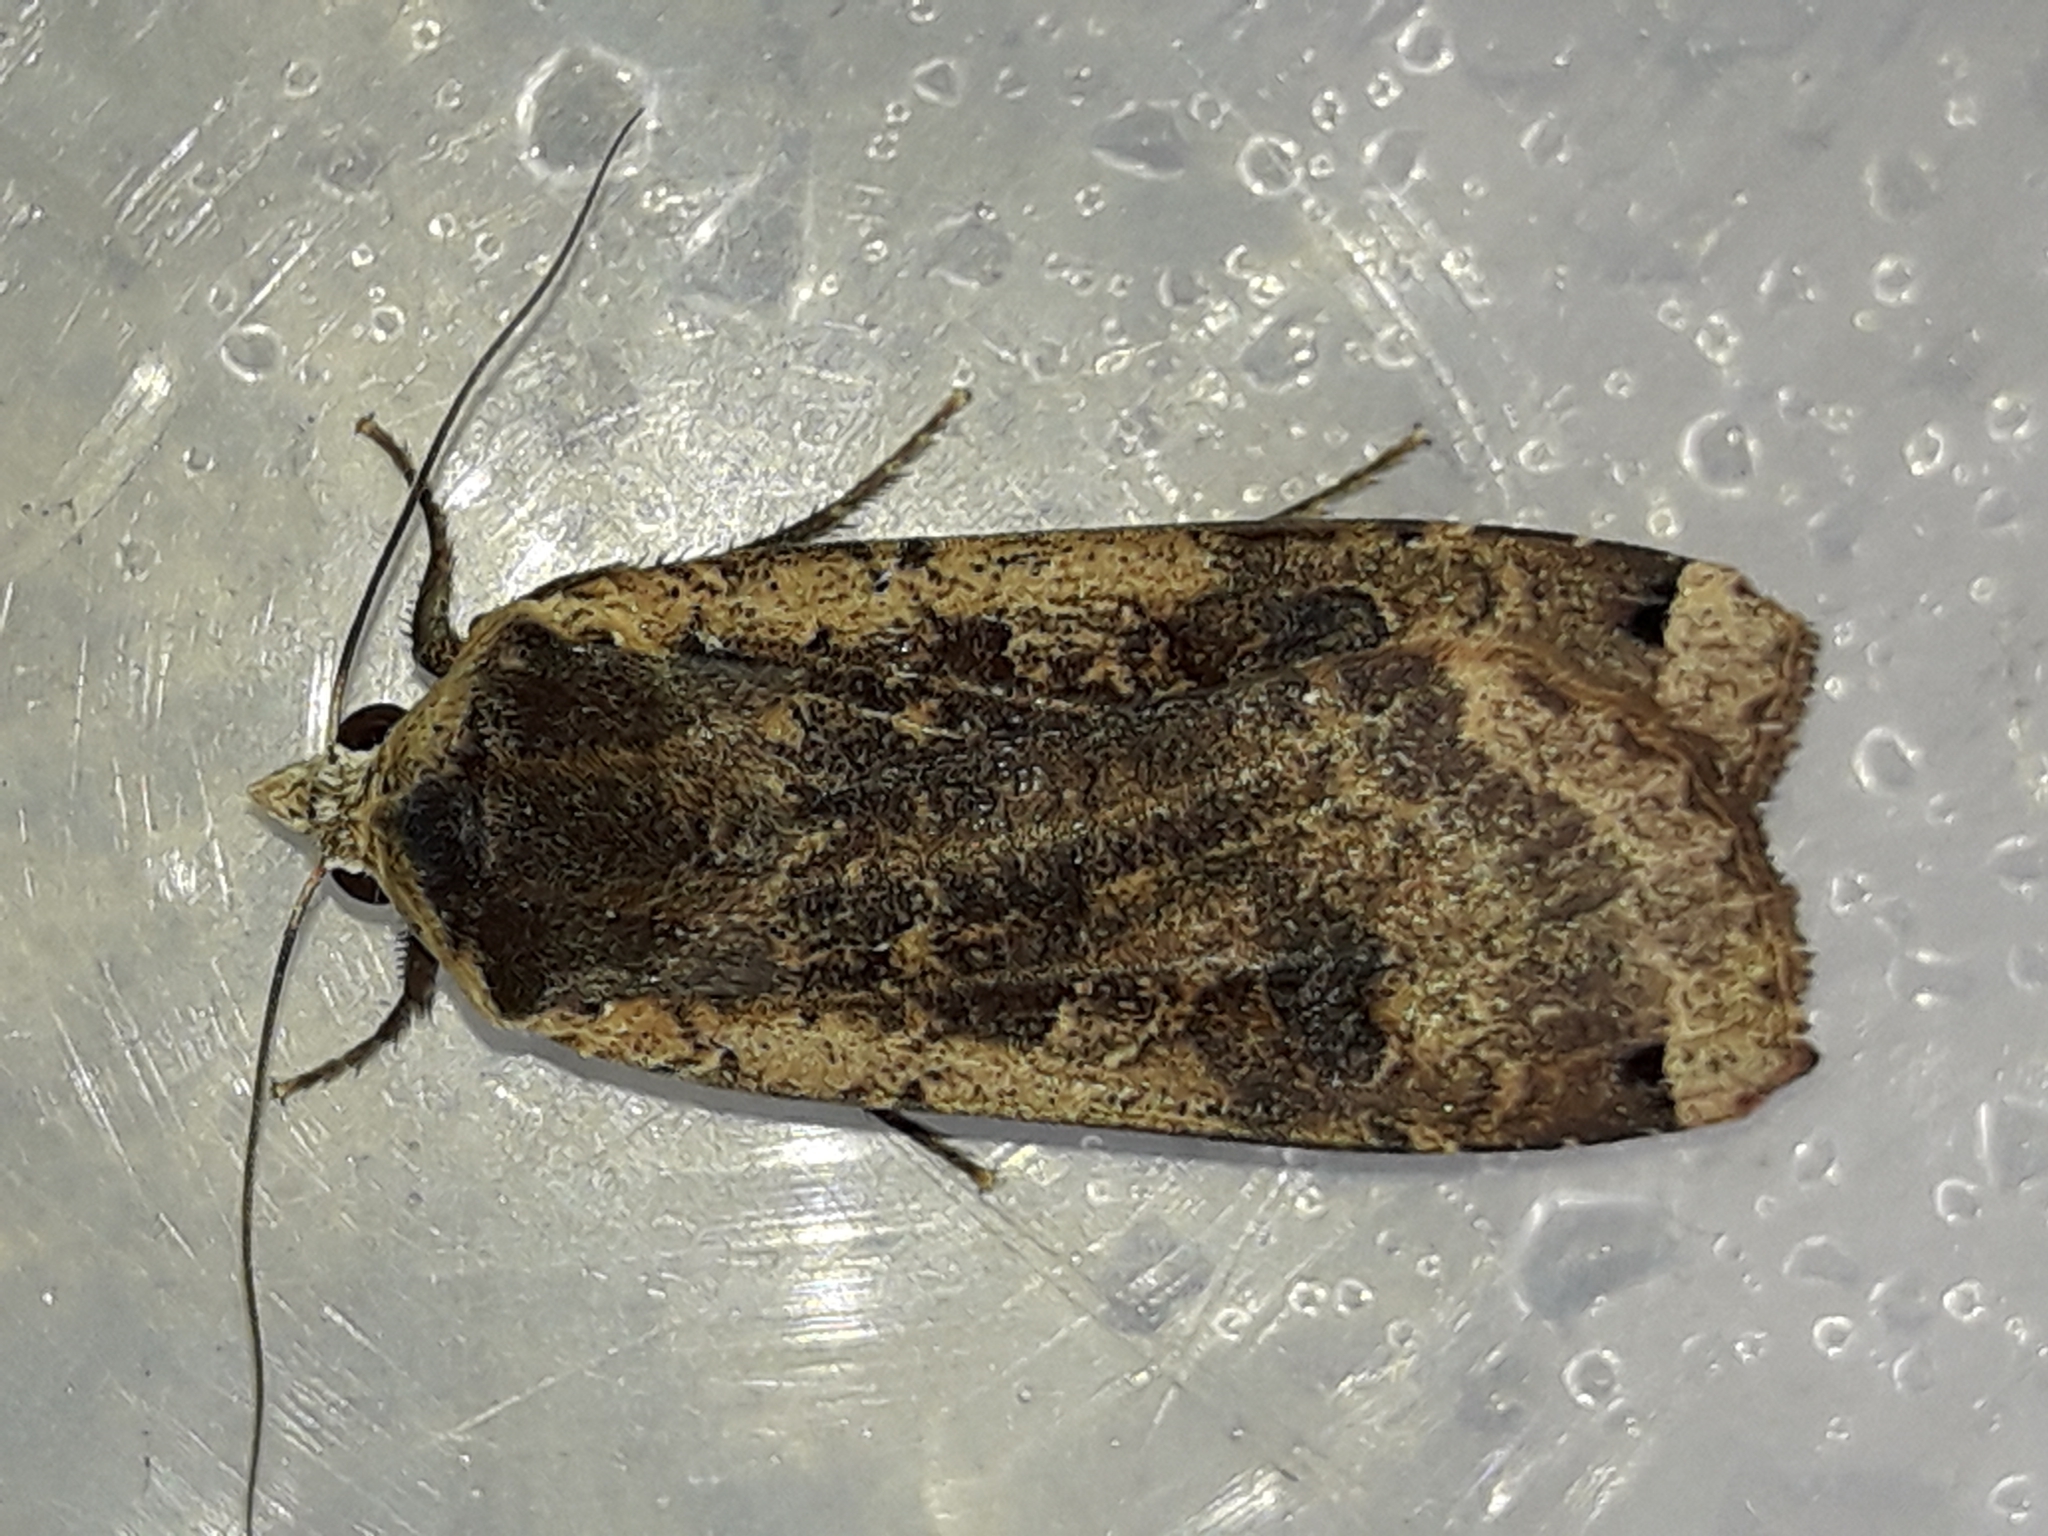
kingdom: Animalia
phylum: Arthropoda
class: Insecta
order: Lepidoptera
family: Noctuidae
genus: Noctua
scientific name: Noctua pronuba
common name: Large yellow underwing
